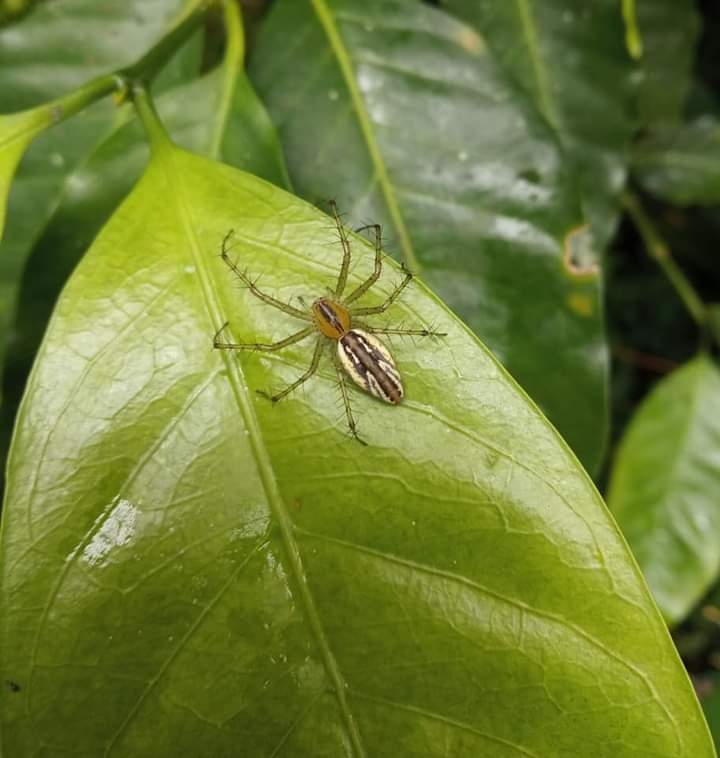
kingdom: Animalia
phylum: Arthropoda
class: Arachnida
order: Araneae
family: Oxyopidae
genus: Peucetia
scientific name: Peucetia rubrolineata
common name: Lynx spiders
